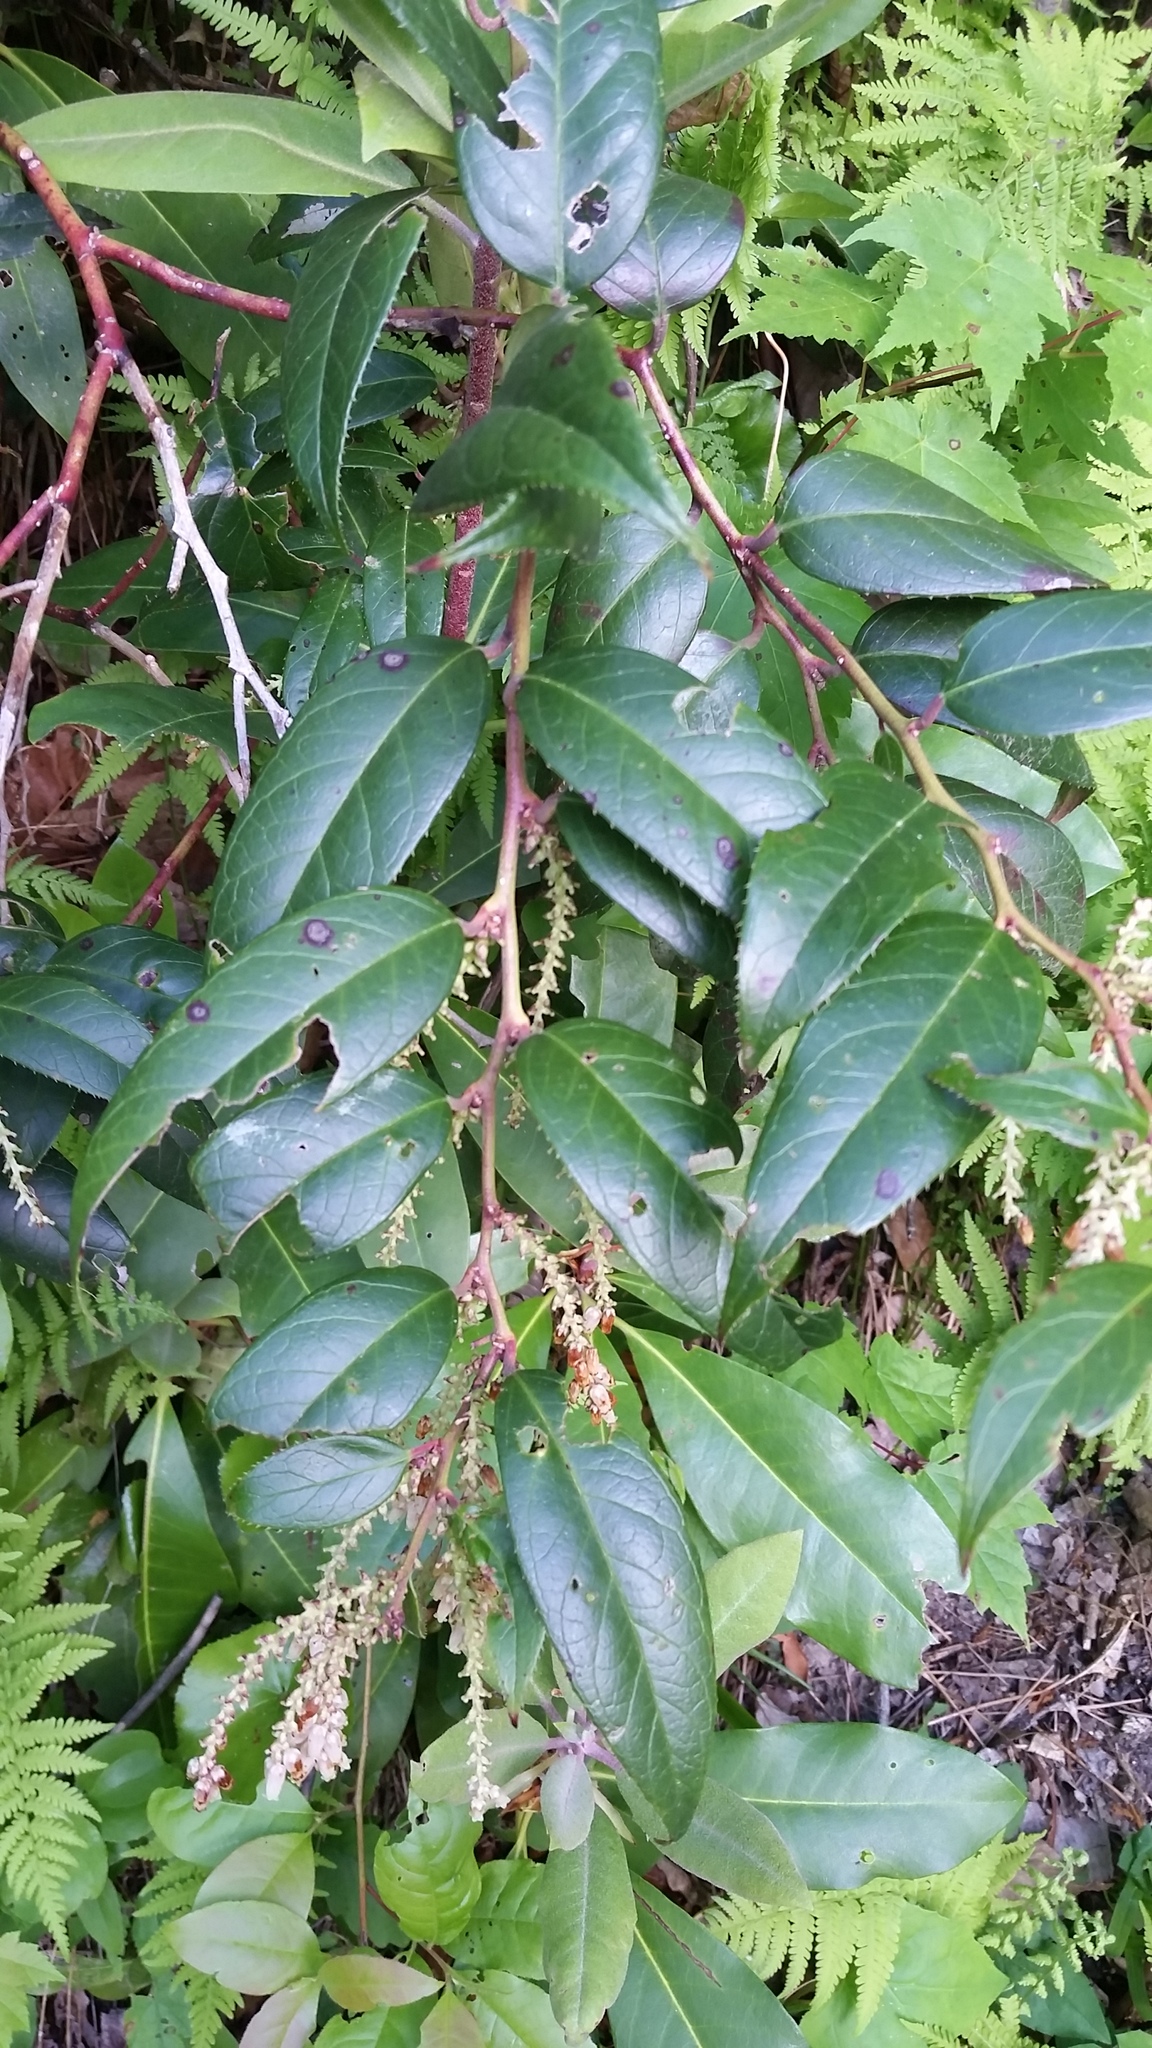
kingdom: Plantae
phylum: Tracheophyta
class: Magnoliopsida
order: Ericales
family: Ericaceae
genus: Leucothoe
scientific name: Leucothoe fontanesiana
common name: Fetterbush
